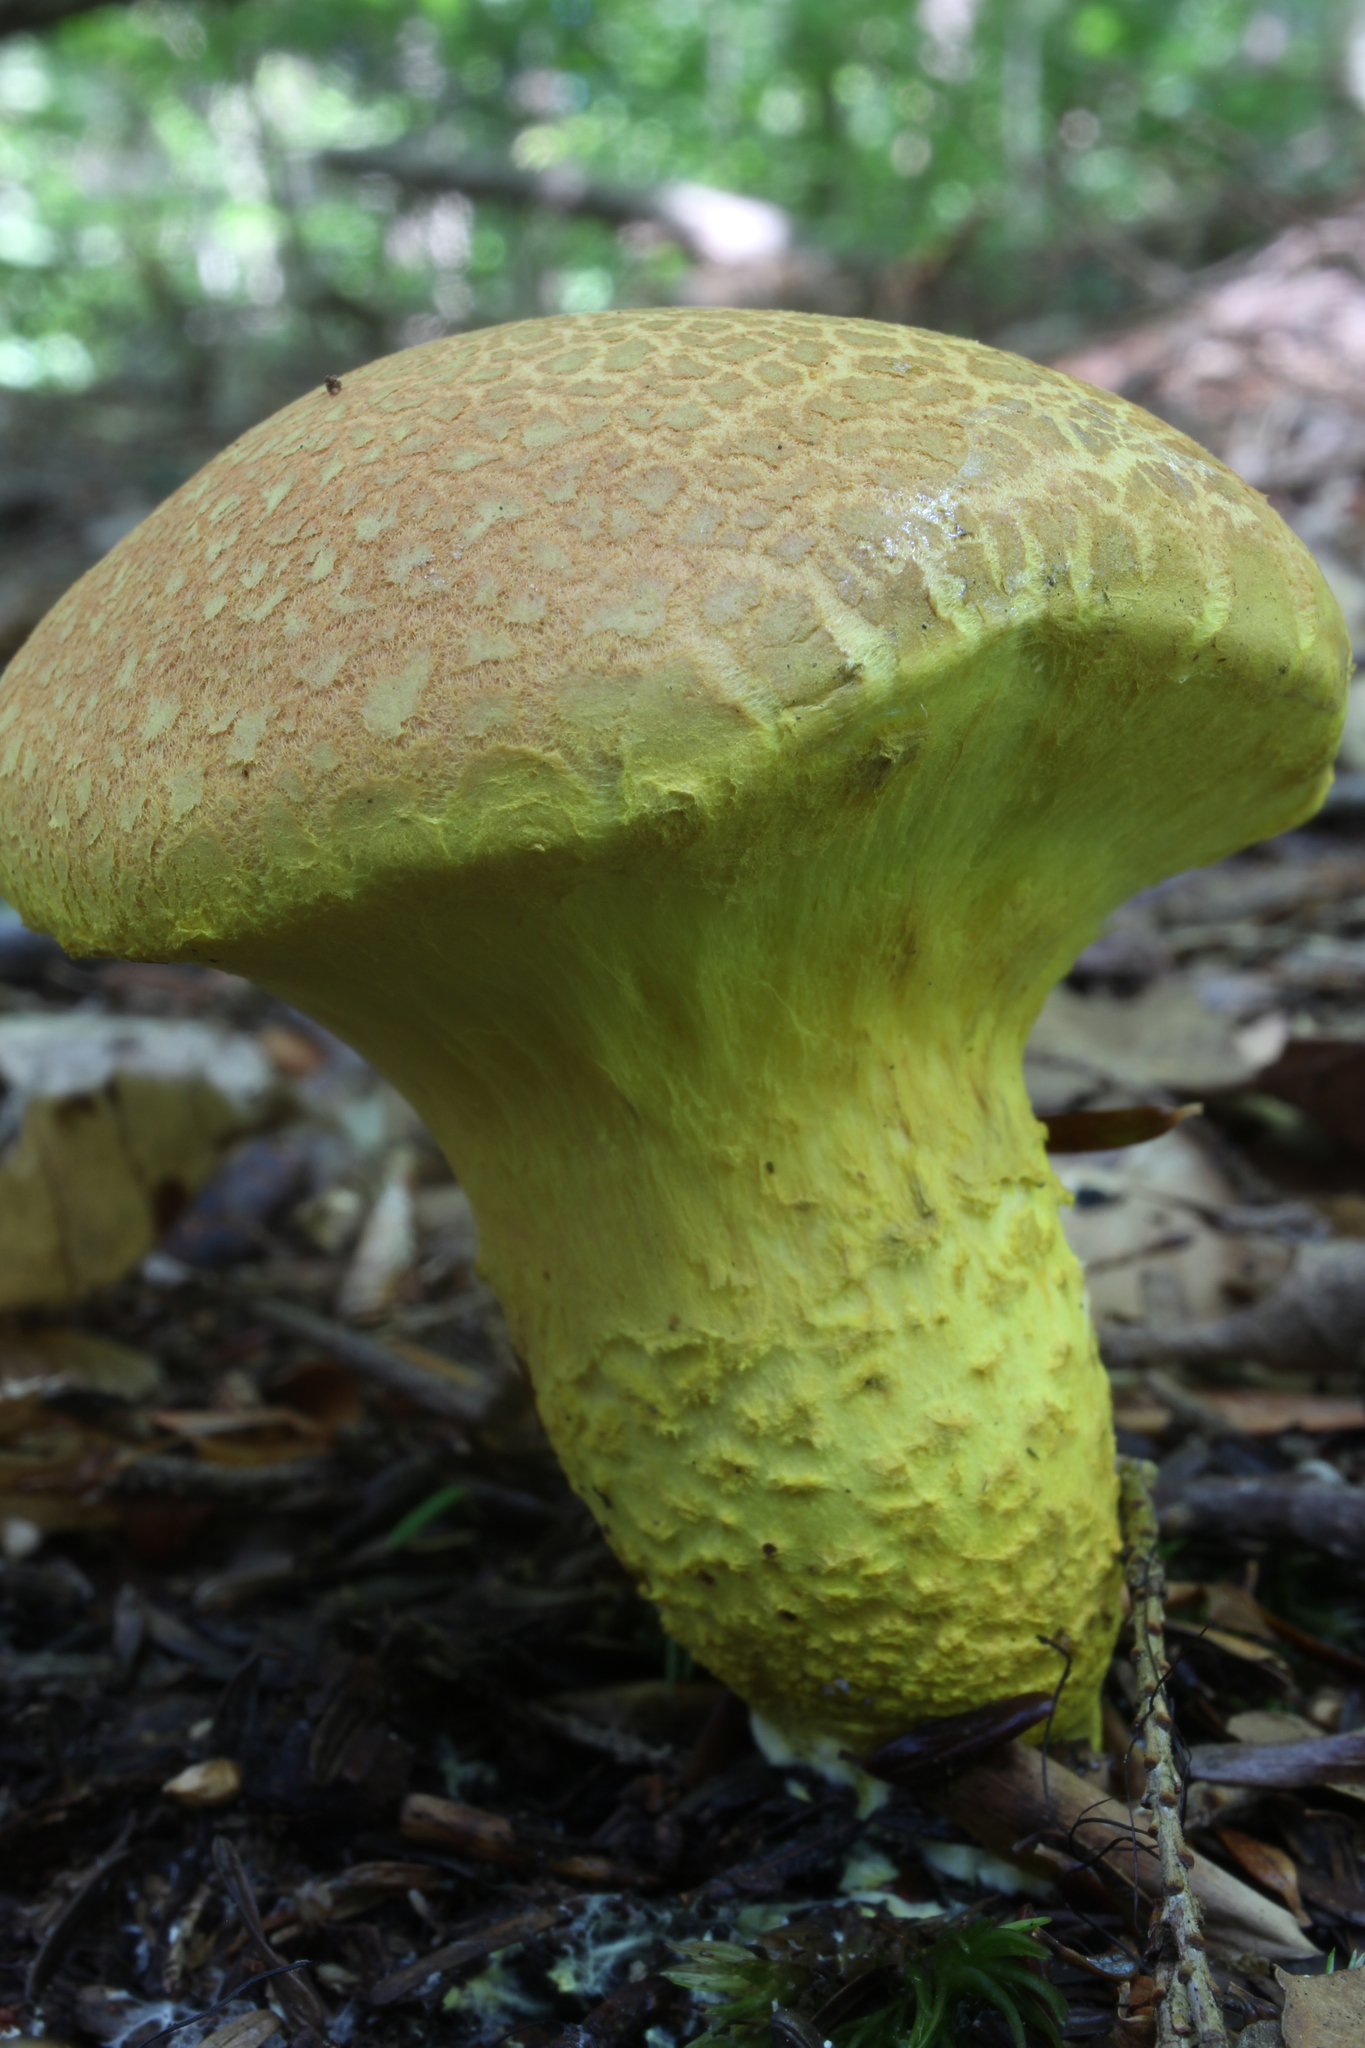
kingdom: Fungi
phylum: Basidiomycota
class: Agaricomycetes
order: Boletales
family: Boletaceae
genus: Pulveroboletus
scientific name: Pulveroboletus ravenelii
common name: Powdery sulfur bolete
